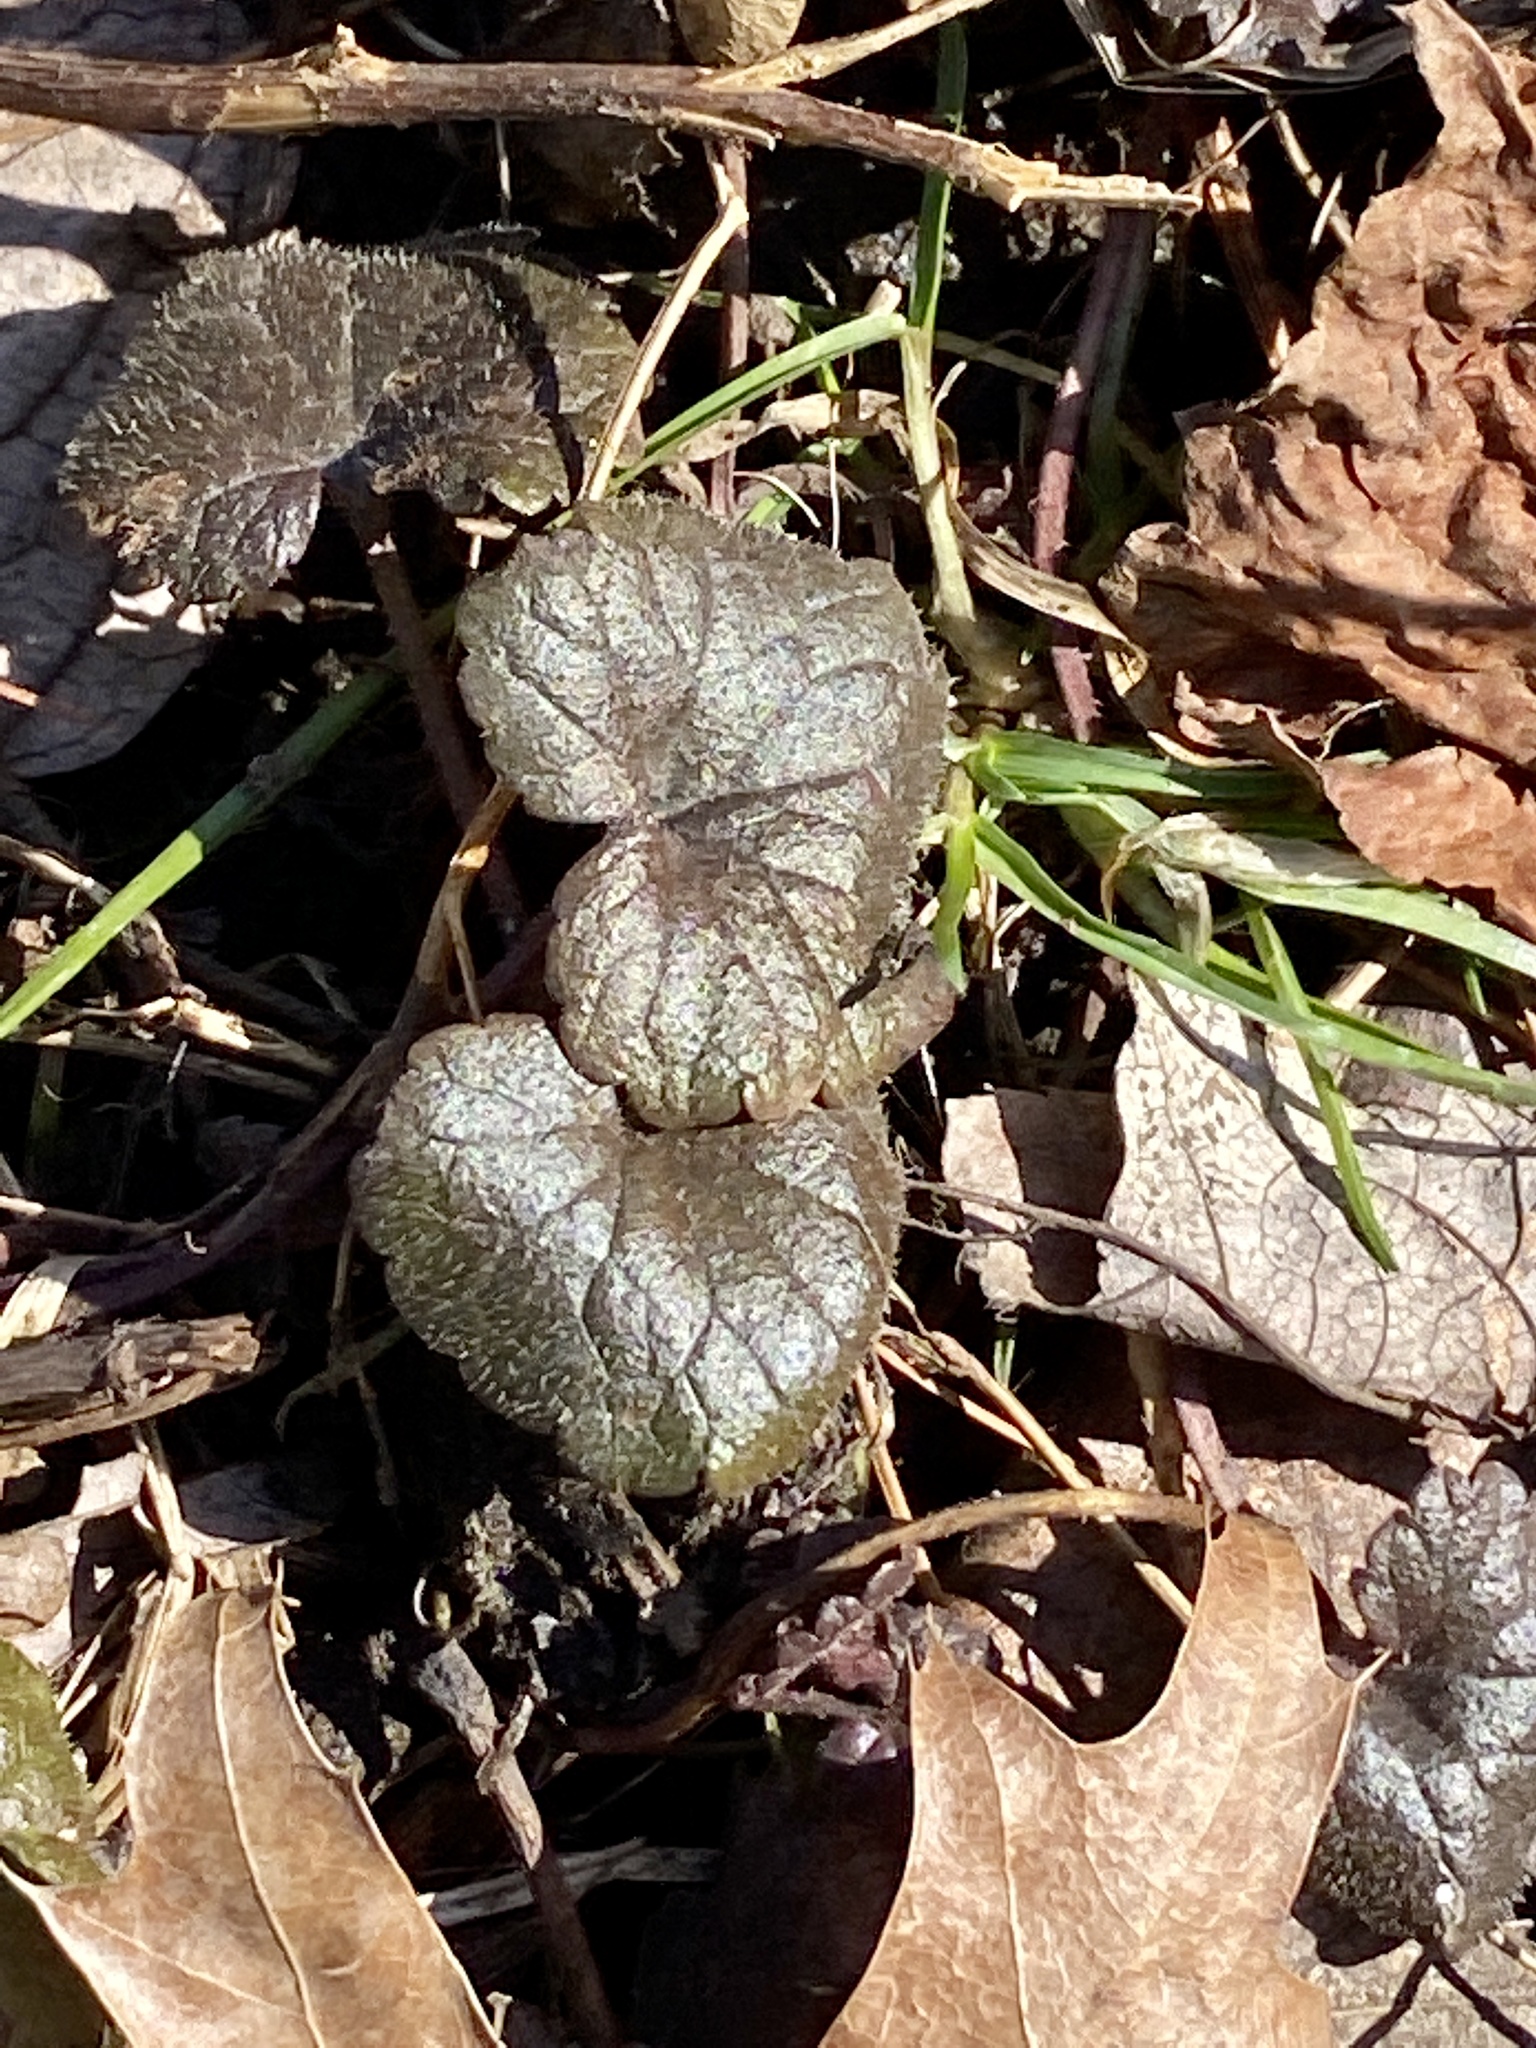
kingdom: Plantae
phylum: Tracheophyta
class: Magnoliopsida
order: Lamiales
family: Lamiaceae
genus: Glechoma
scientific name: Glechoma hederacea
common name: Ground ivy
